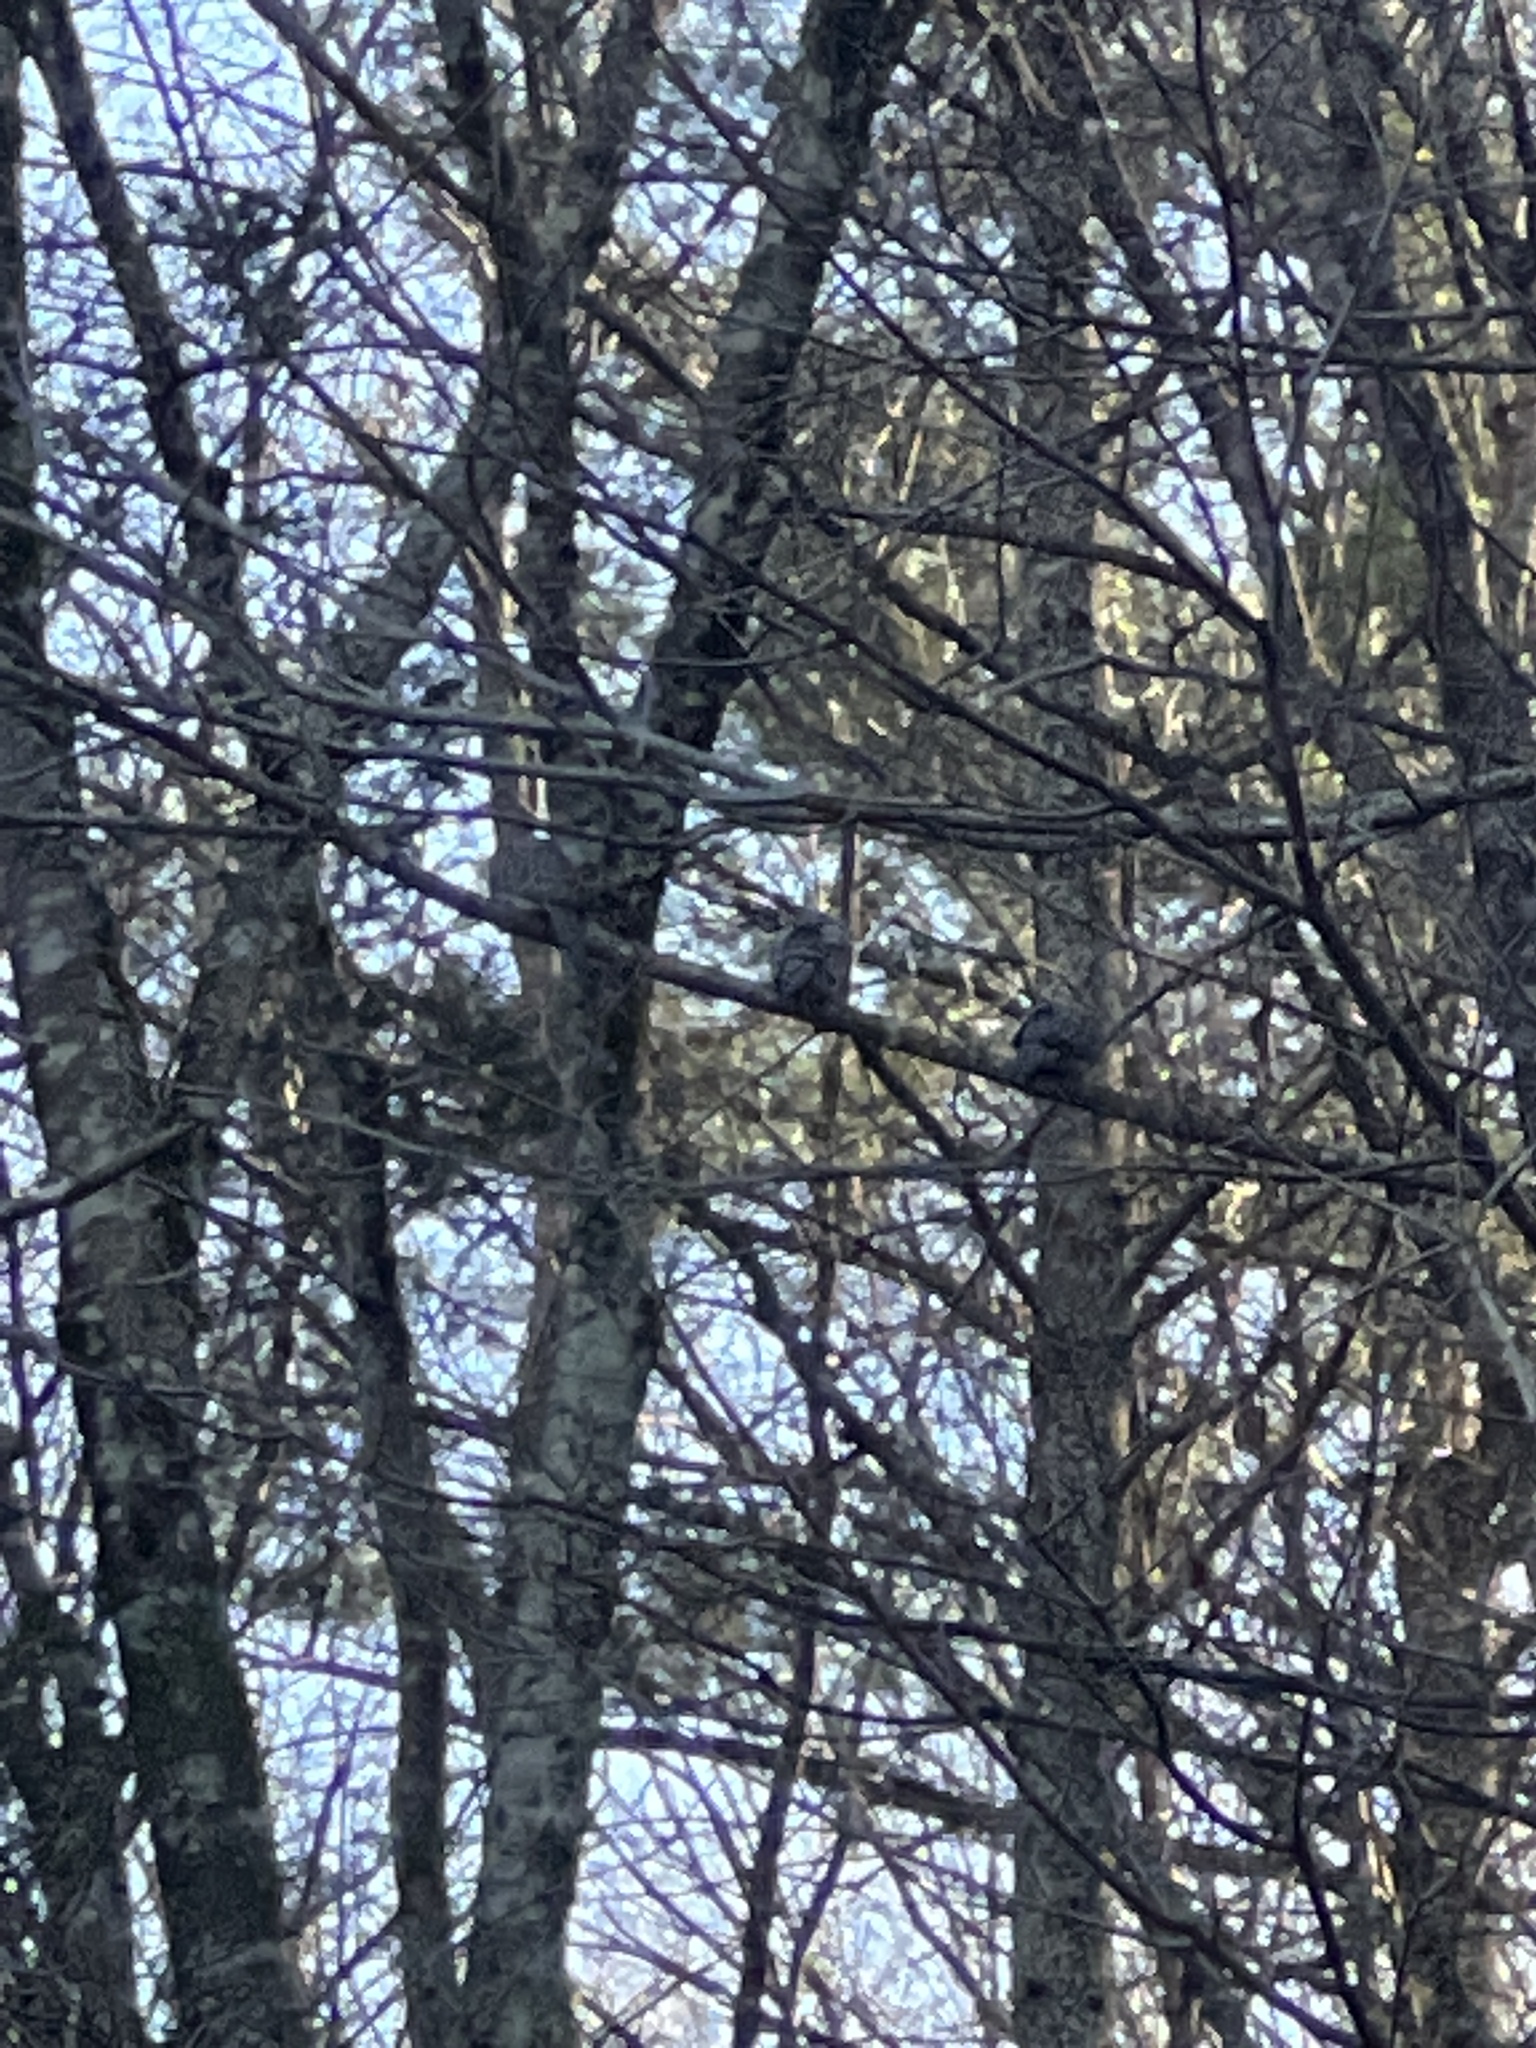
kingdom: Animalia
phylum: Chordata
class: Aves
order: Strigiformes
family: Strigidae
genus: Strix
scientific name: Strix varia
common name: Barred owl
